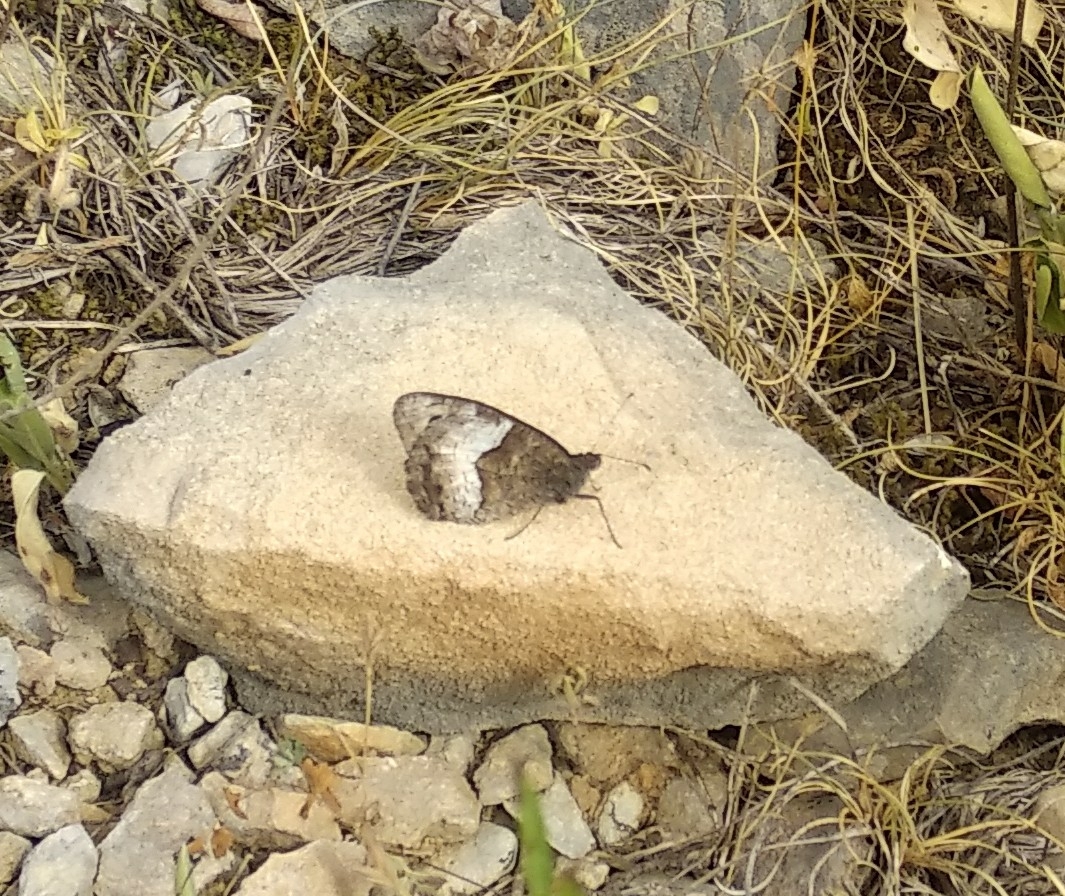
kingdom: Animalia
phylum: Arthropoda
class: Insecta
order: Lepidoptera
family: Nymphalidae
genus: Hipparchia
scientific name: Hipparchia hermione
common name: Rock grayling
